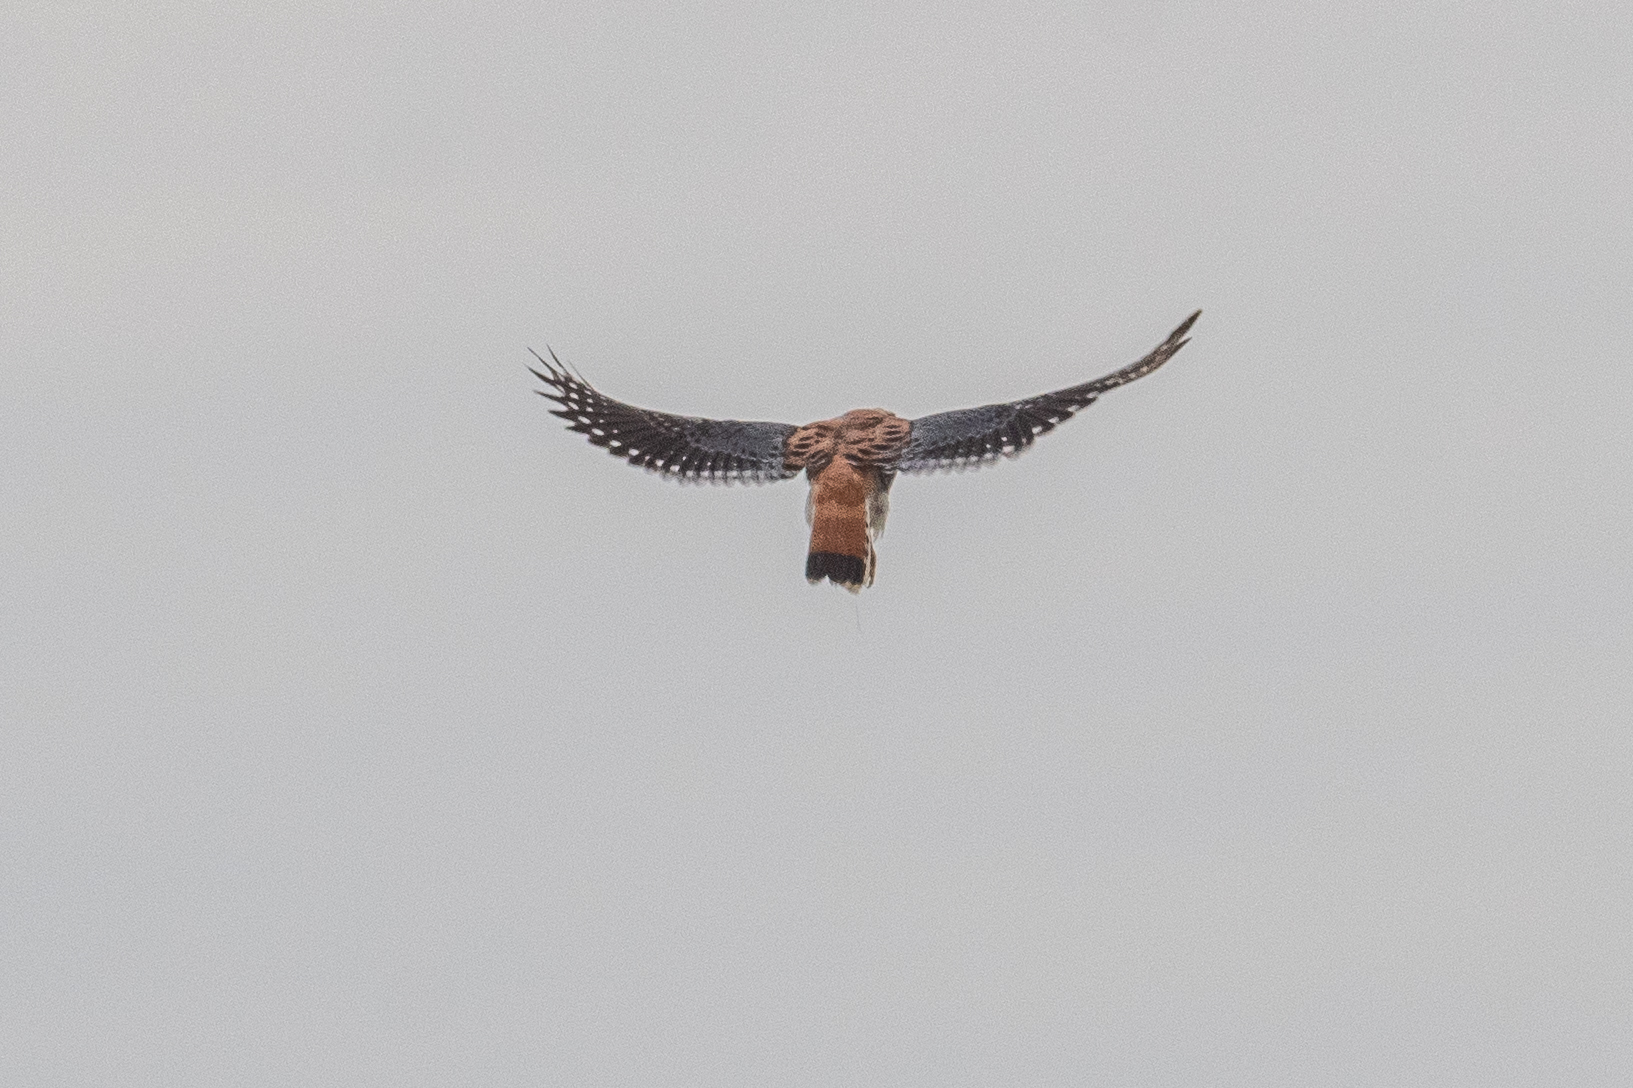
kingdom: Animalia
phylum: Chordata
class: Aves
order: Falconiformes
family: Falconidae
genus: Falco
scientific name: Falco sparverius
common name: American kestrel
